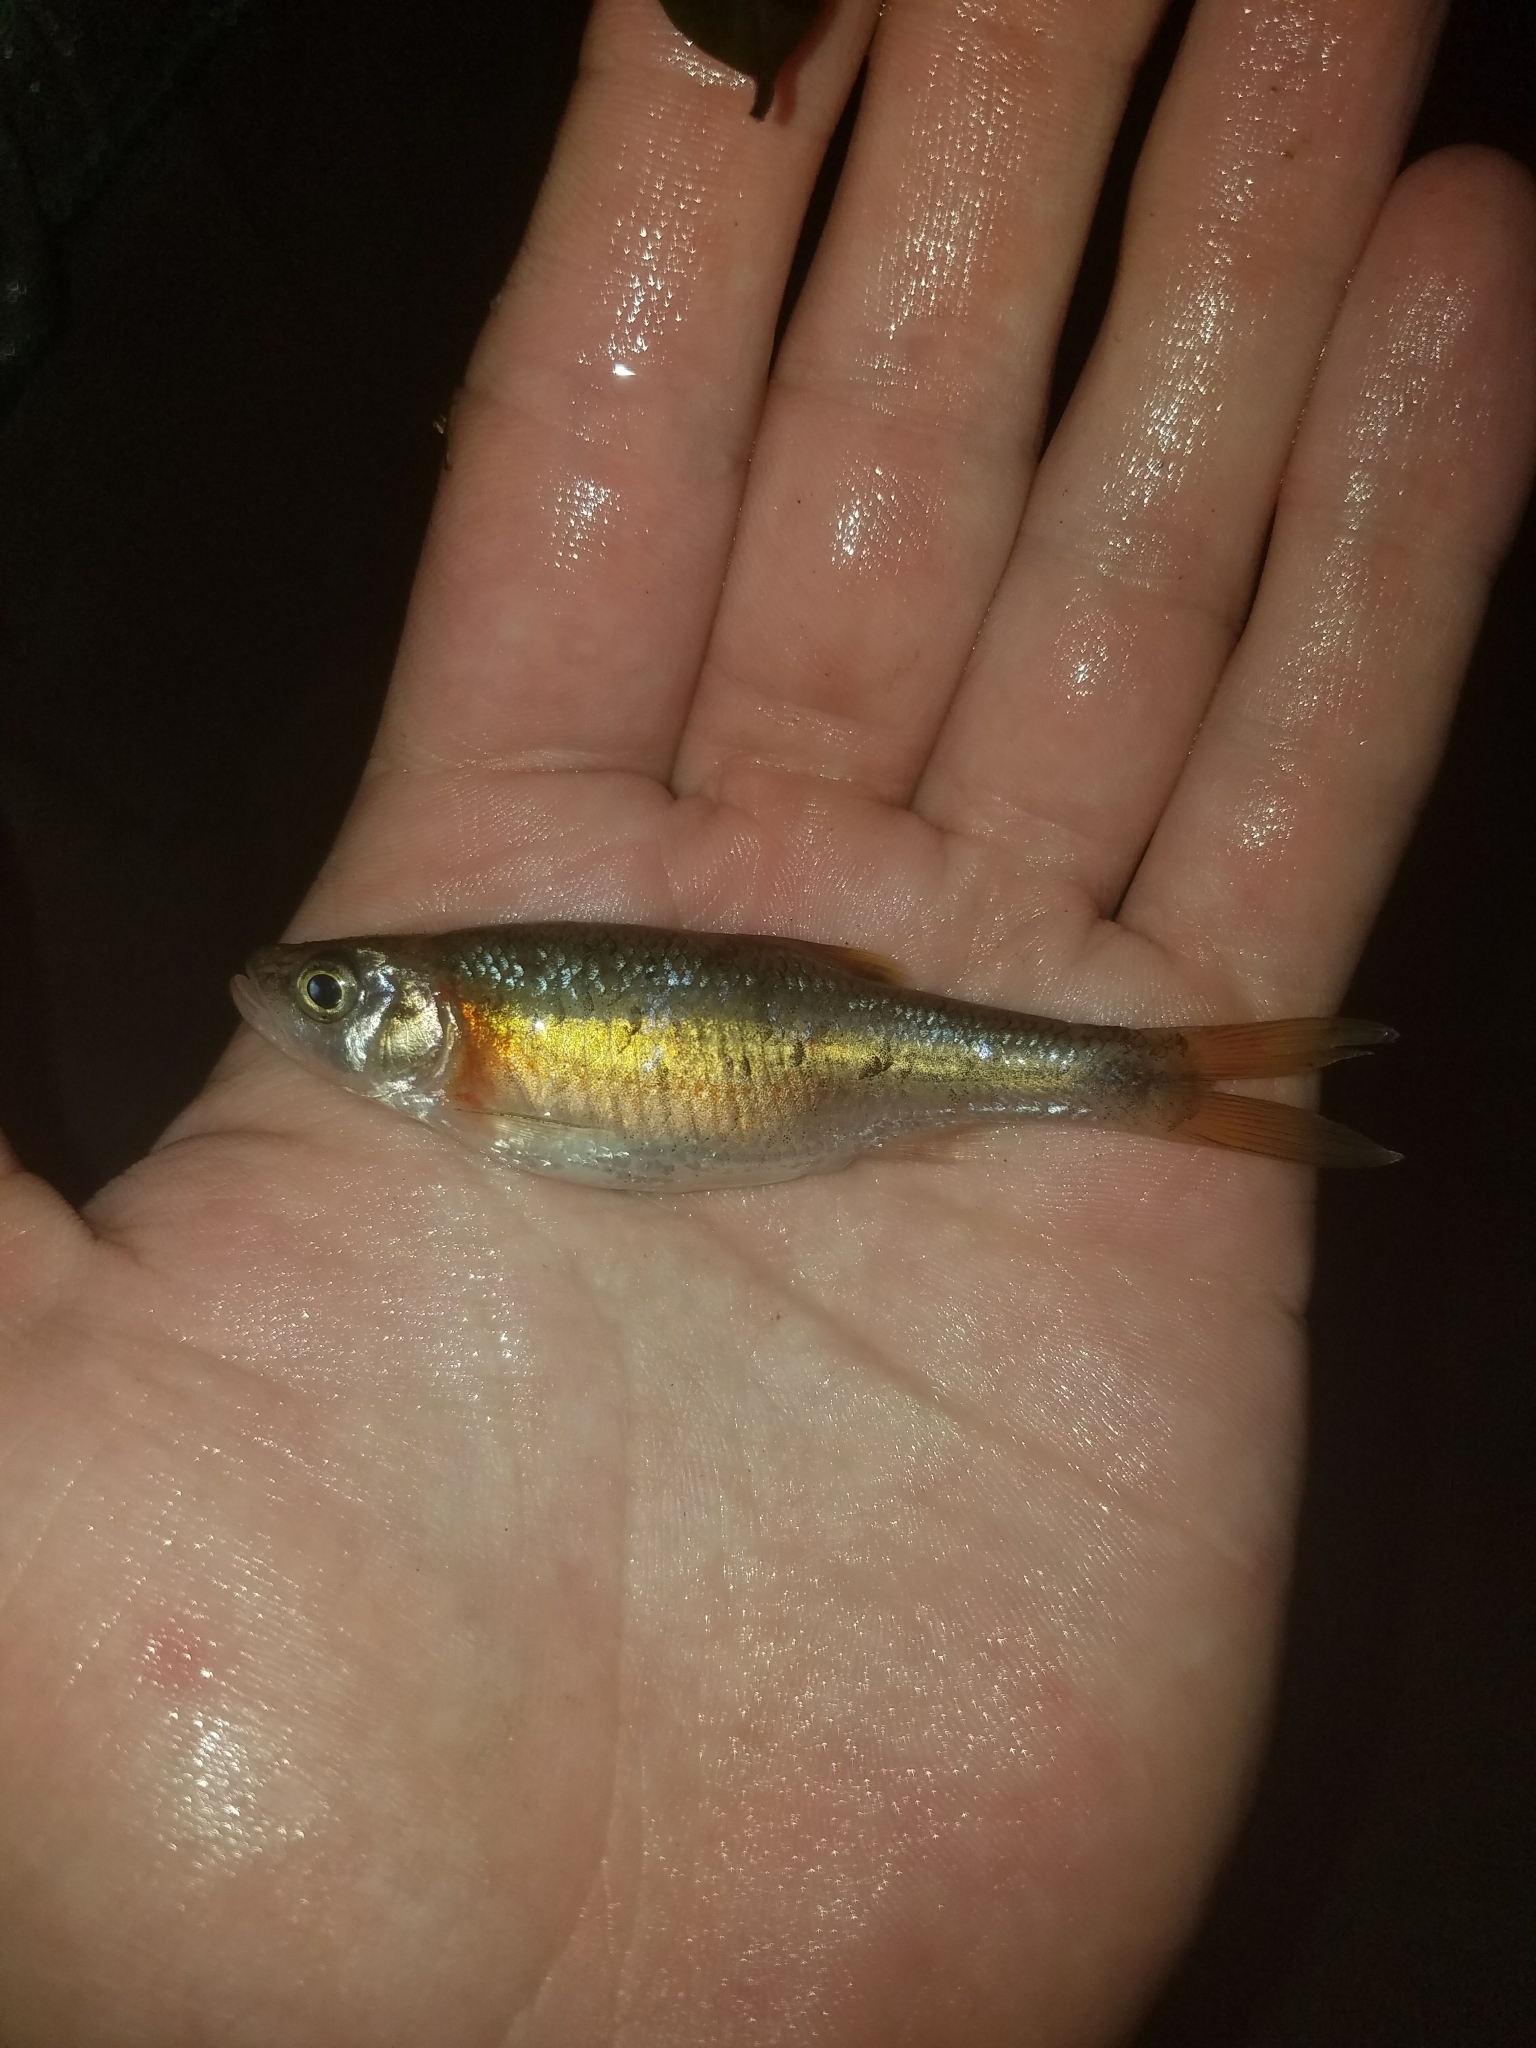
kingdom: Animalia
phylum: Chordata
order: Cypriniformes
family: Cyprinidae
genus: Clinostomus
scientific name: Clinostomus funduloides
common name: Rosyside dace
